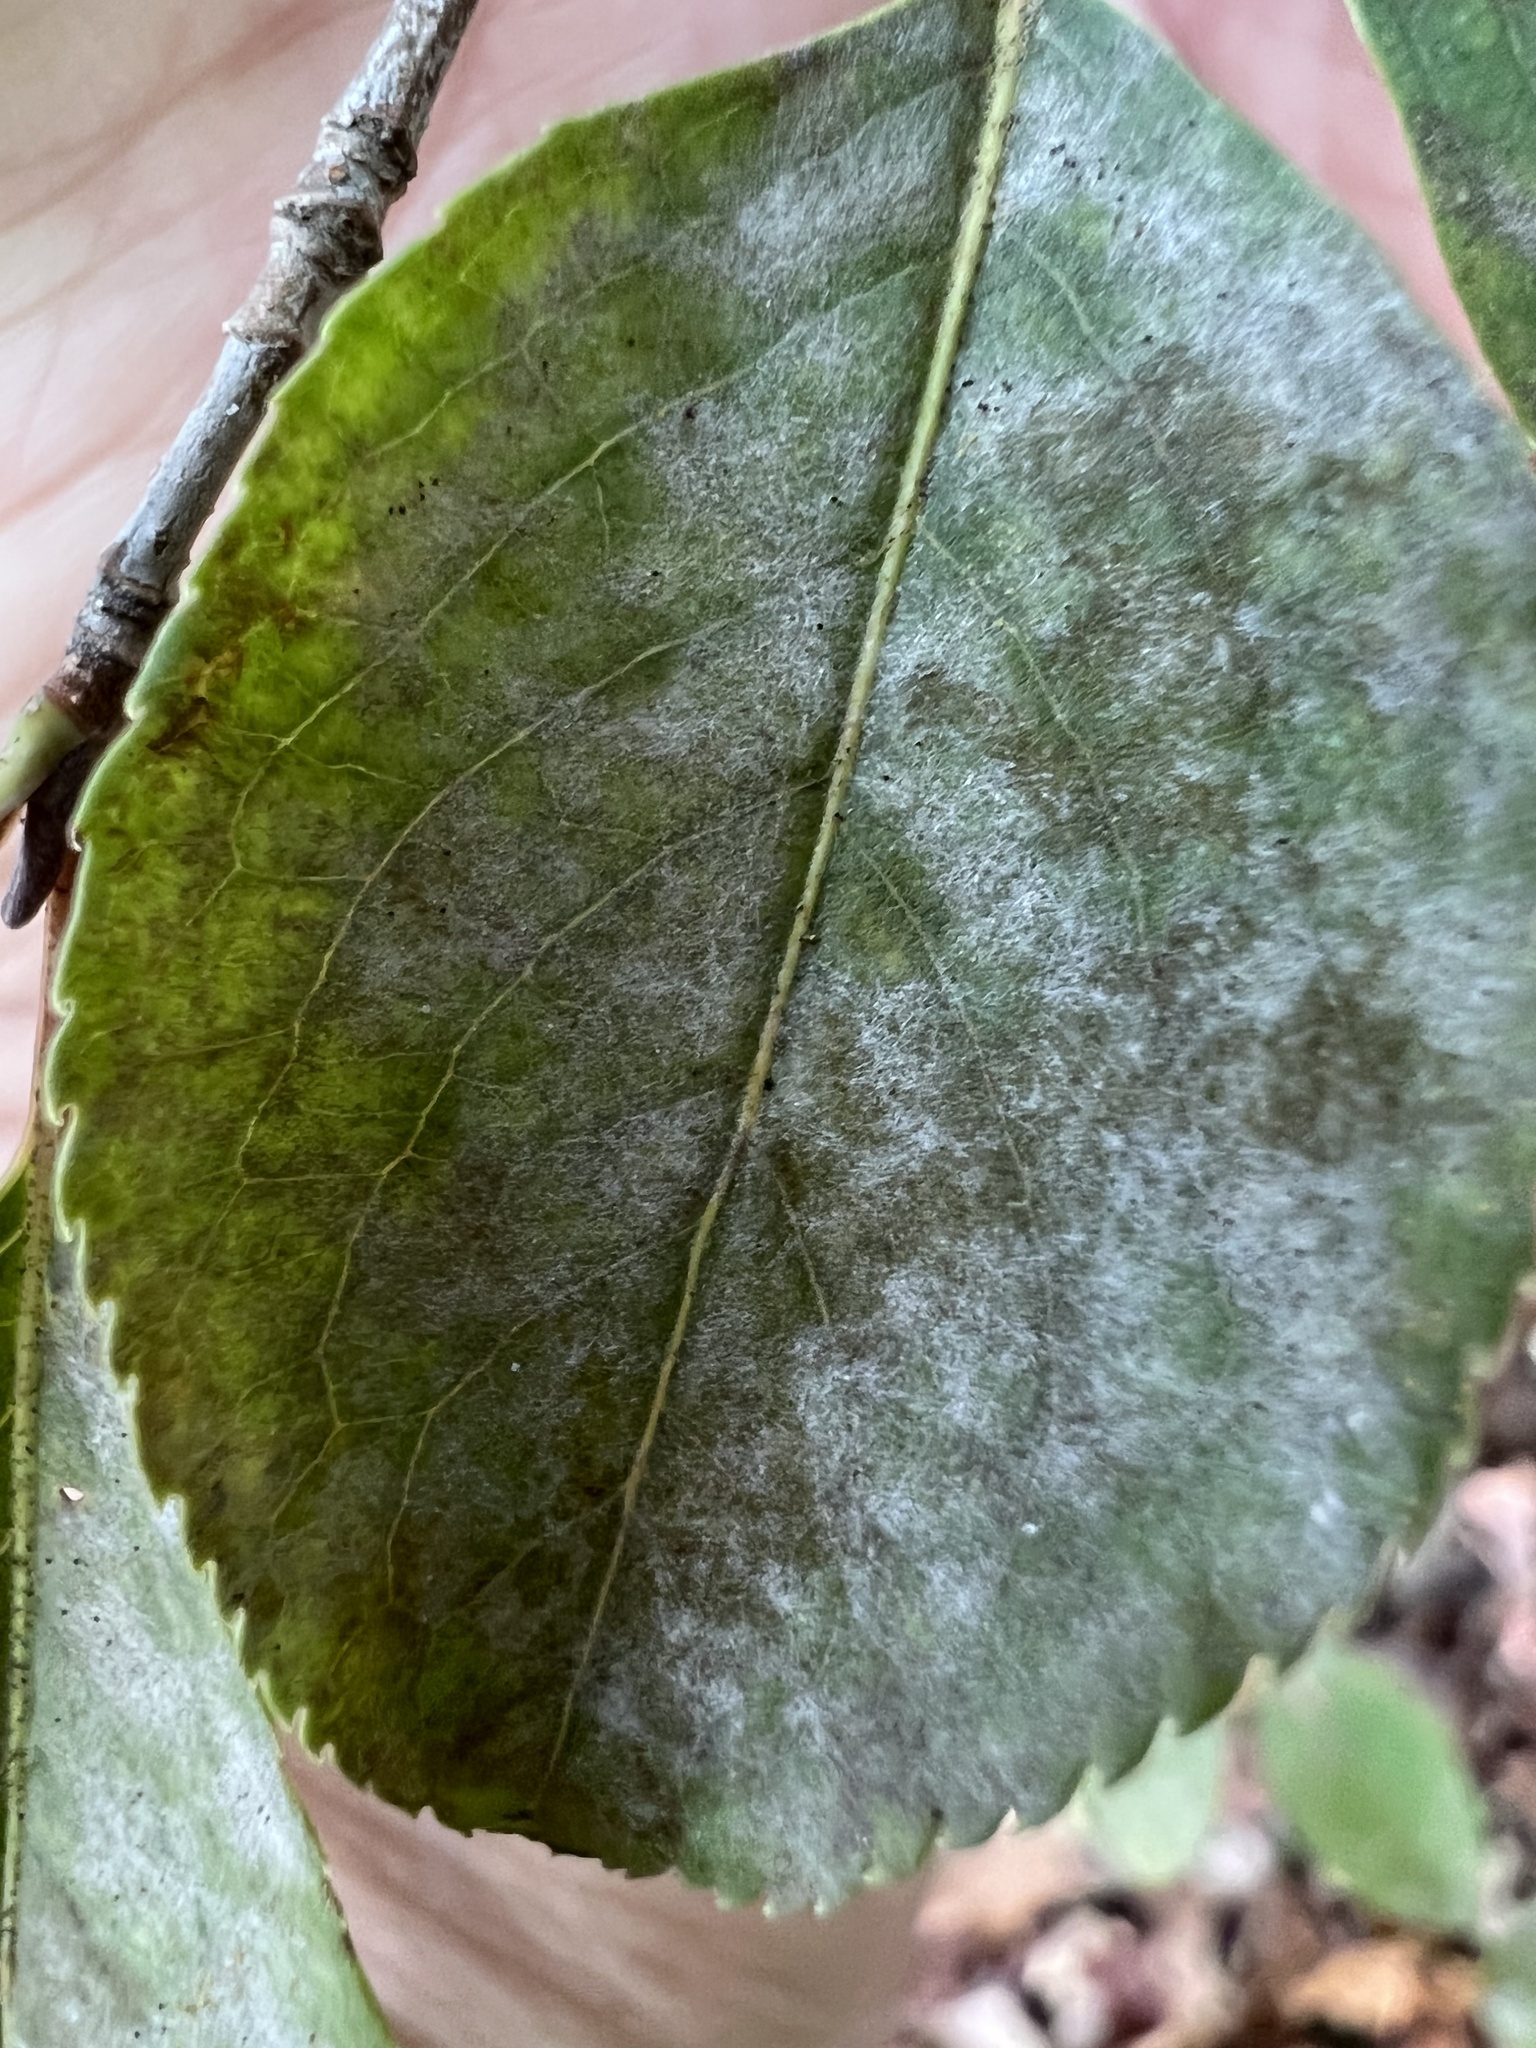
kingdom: Fungi
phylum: Ascomycota
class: Leotiomycetes
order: Helotiales
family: Erysiphaceae
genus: Erysiphe
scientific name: Erysiphe viburni
